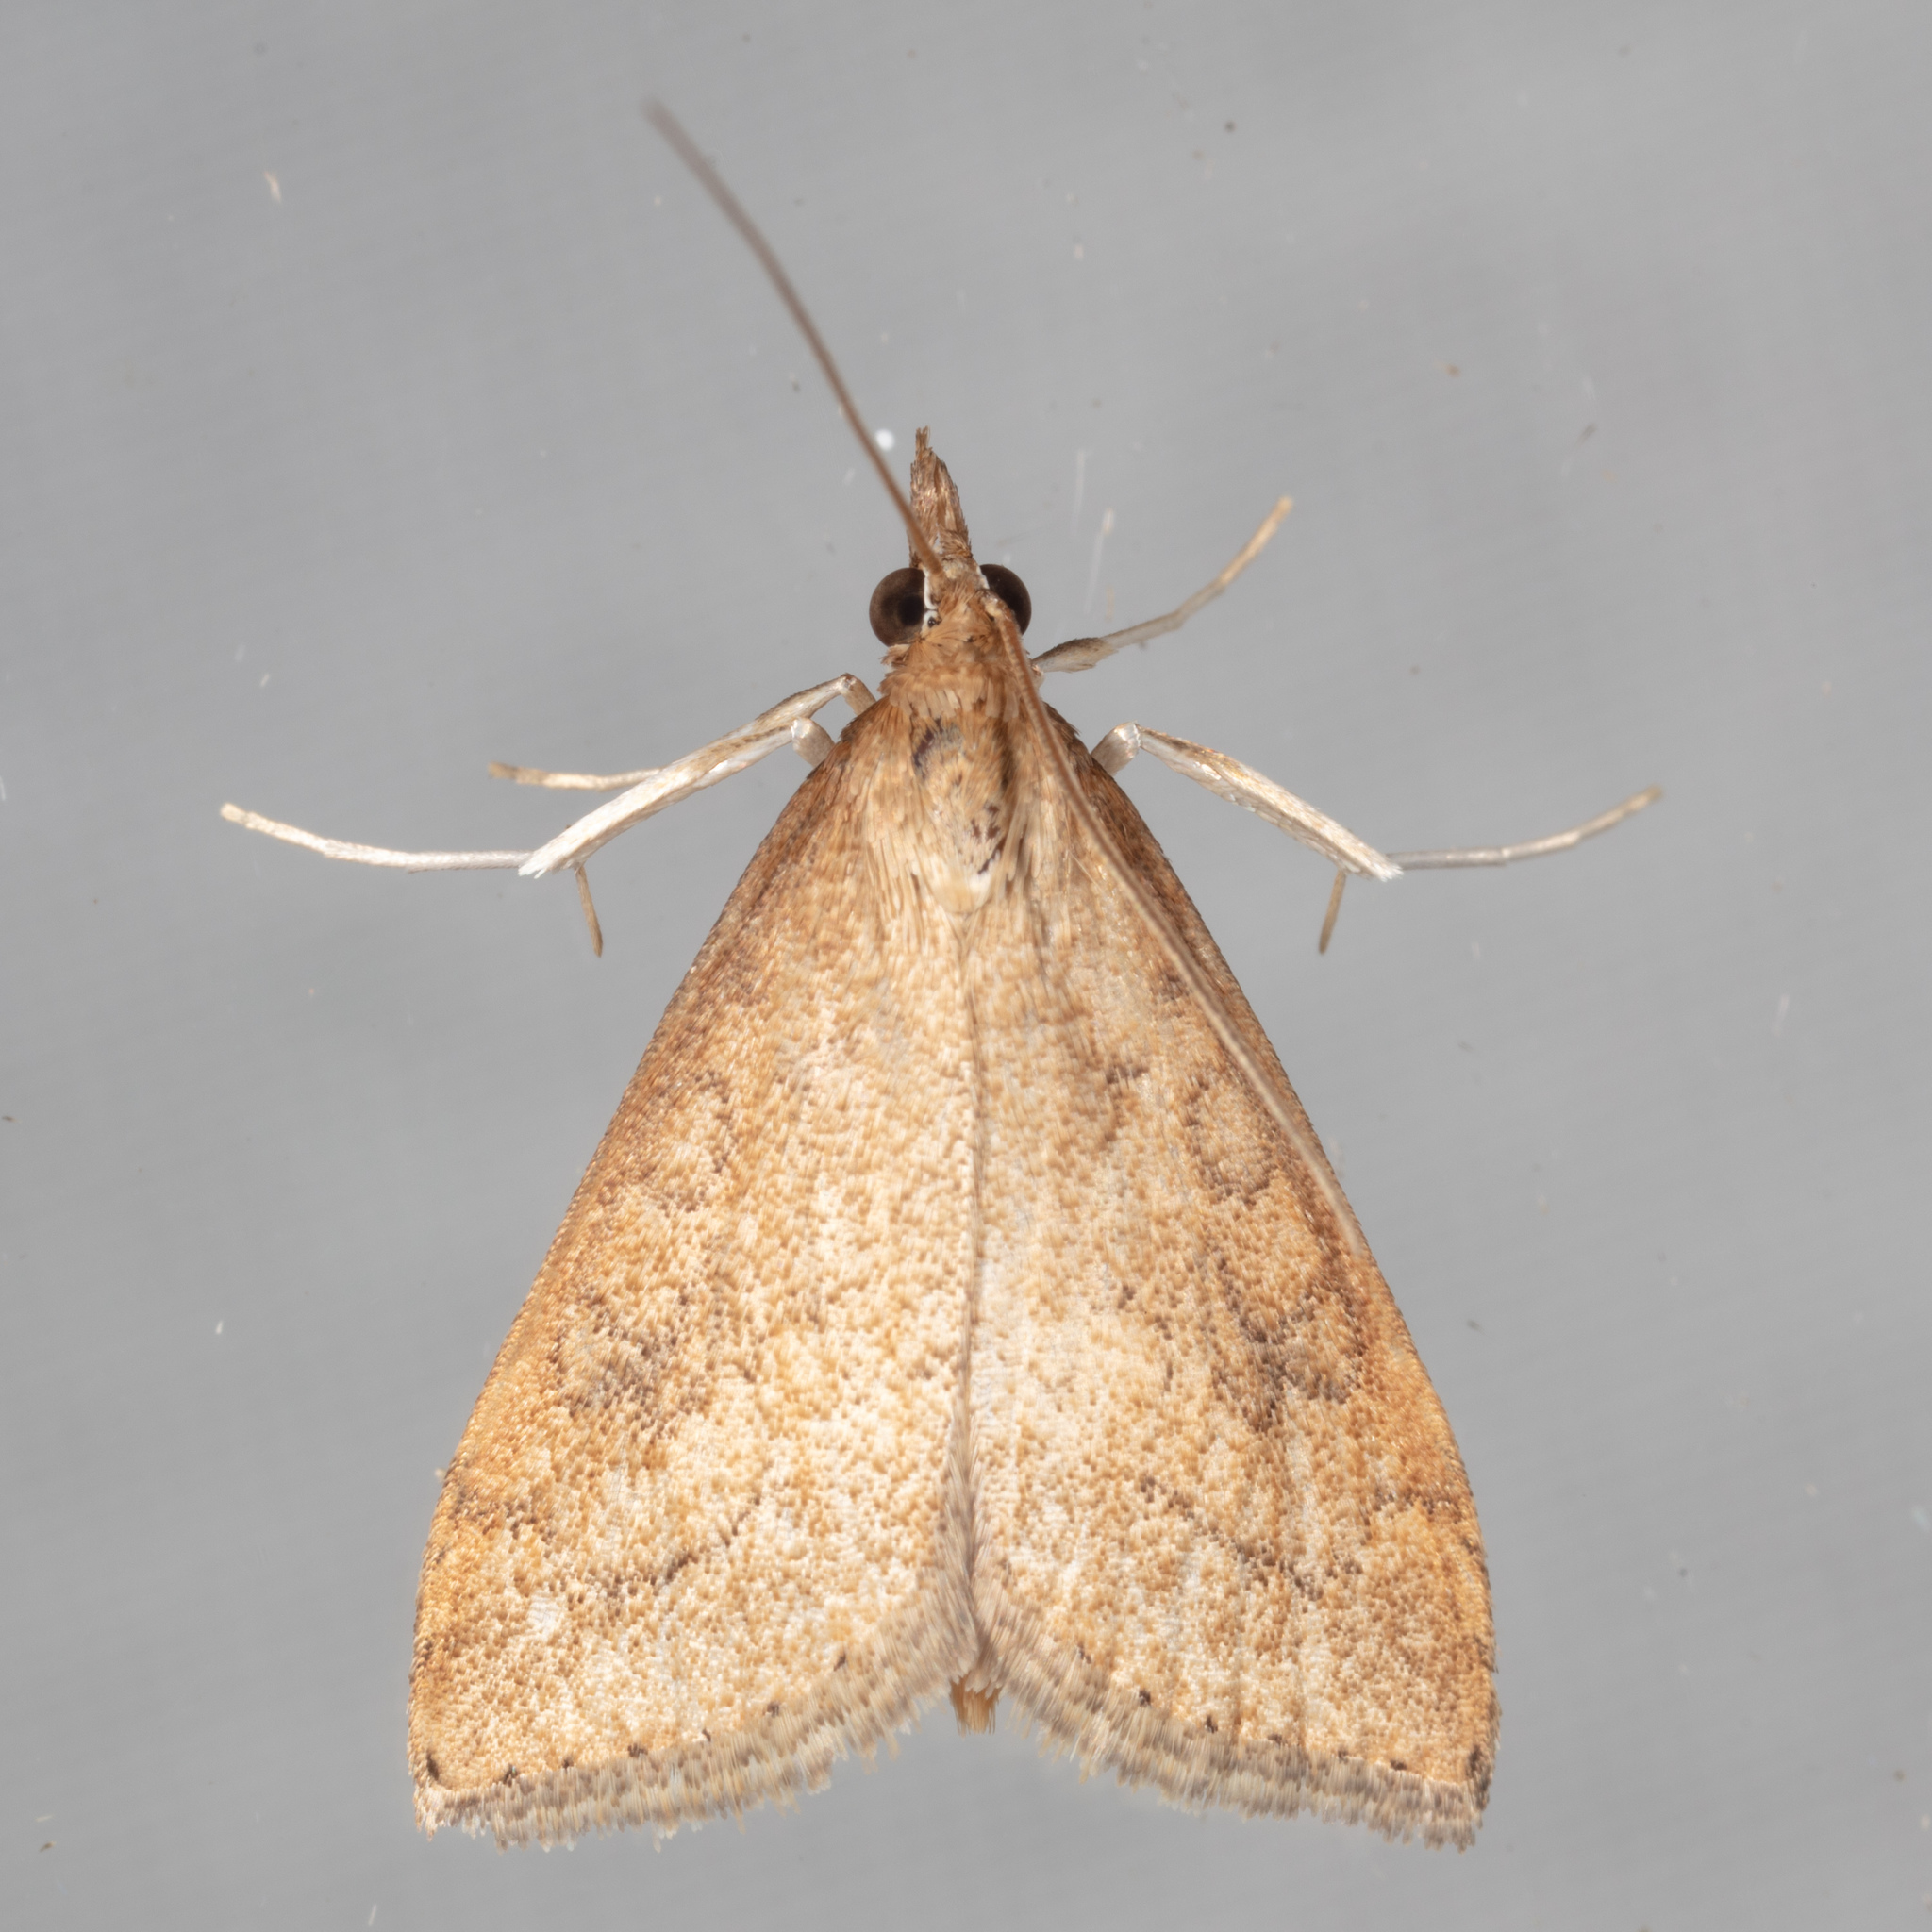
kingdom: Animalia
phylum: Arthropoda
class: Insecta
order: Lepidoptera
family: Crambidae
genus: Udea
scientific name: Udea rubigalis
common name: Celery leaftier moth
